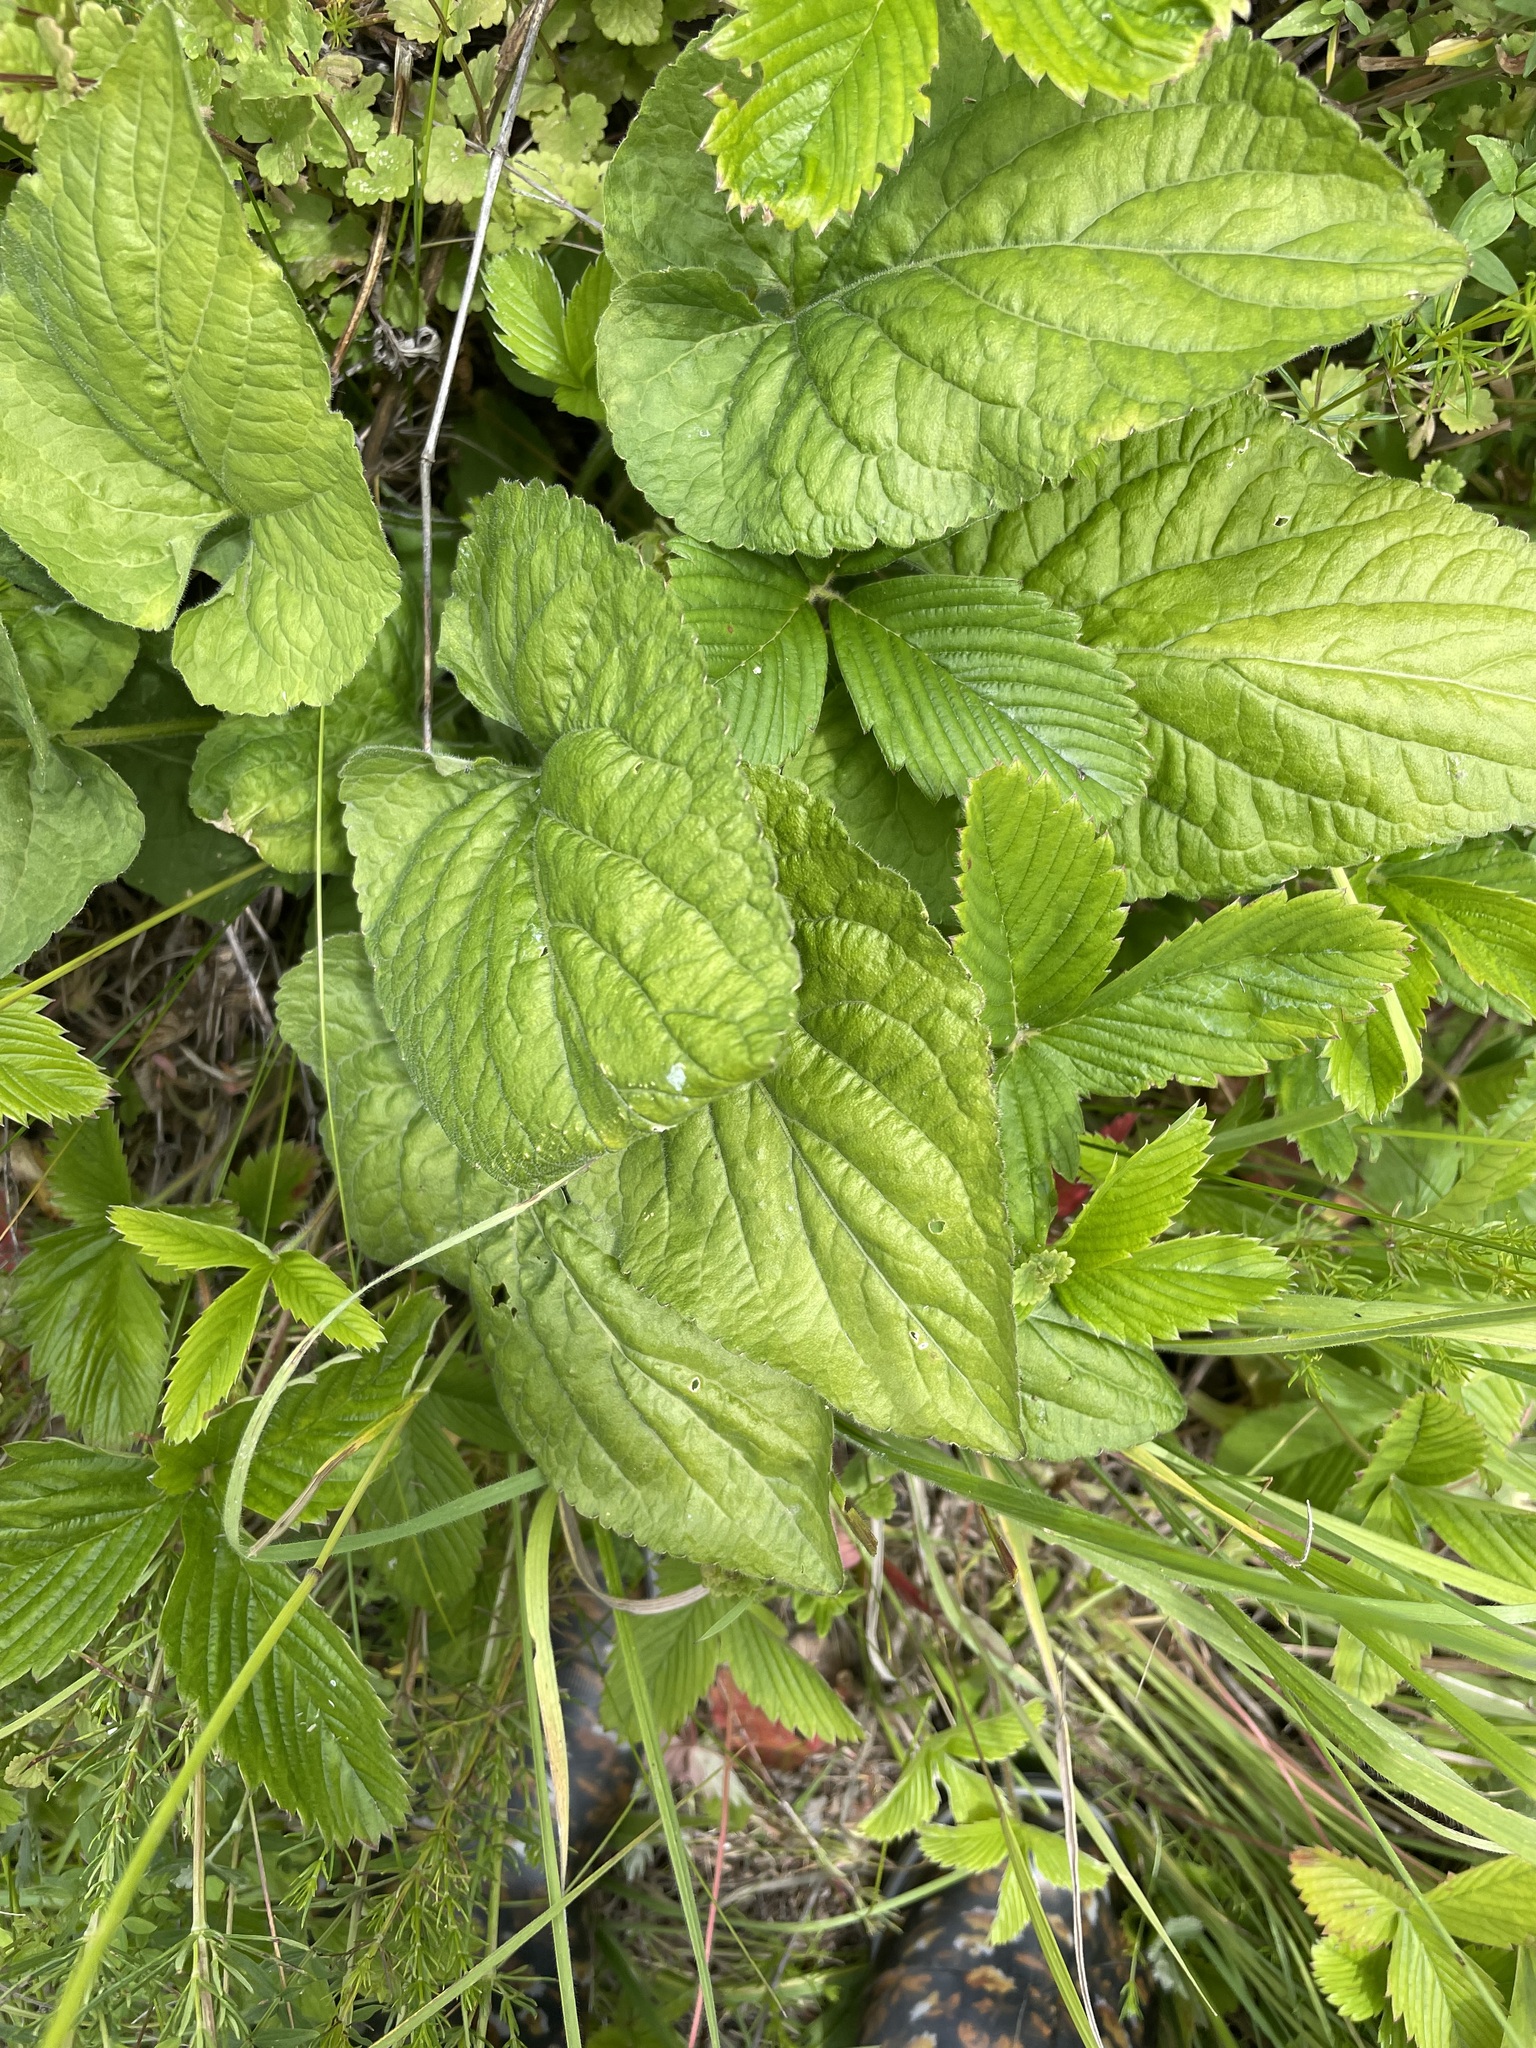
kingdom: Plantae
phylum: Tracheophyta
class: Magnoliopsida
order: Malpighiales
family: Violaceae
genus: Viola
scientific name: Viola hirta
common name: Hairy violet
